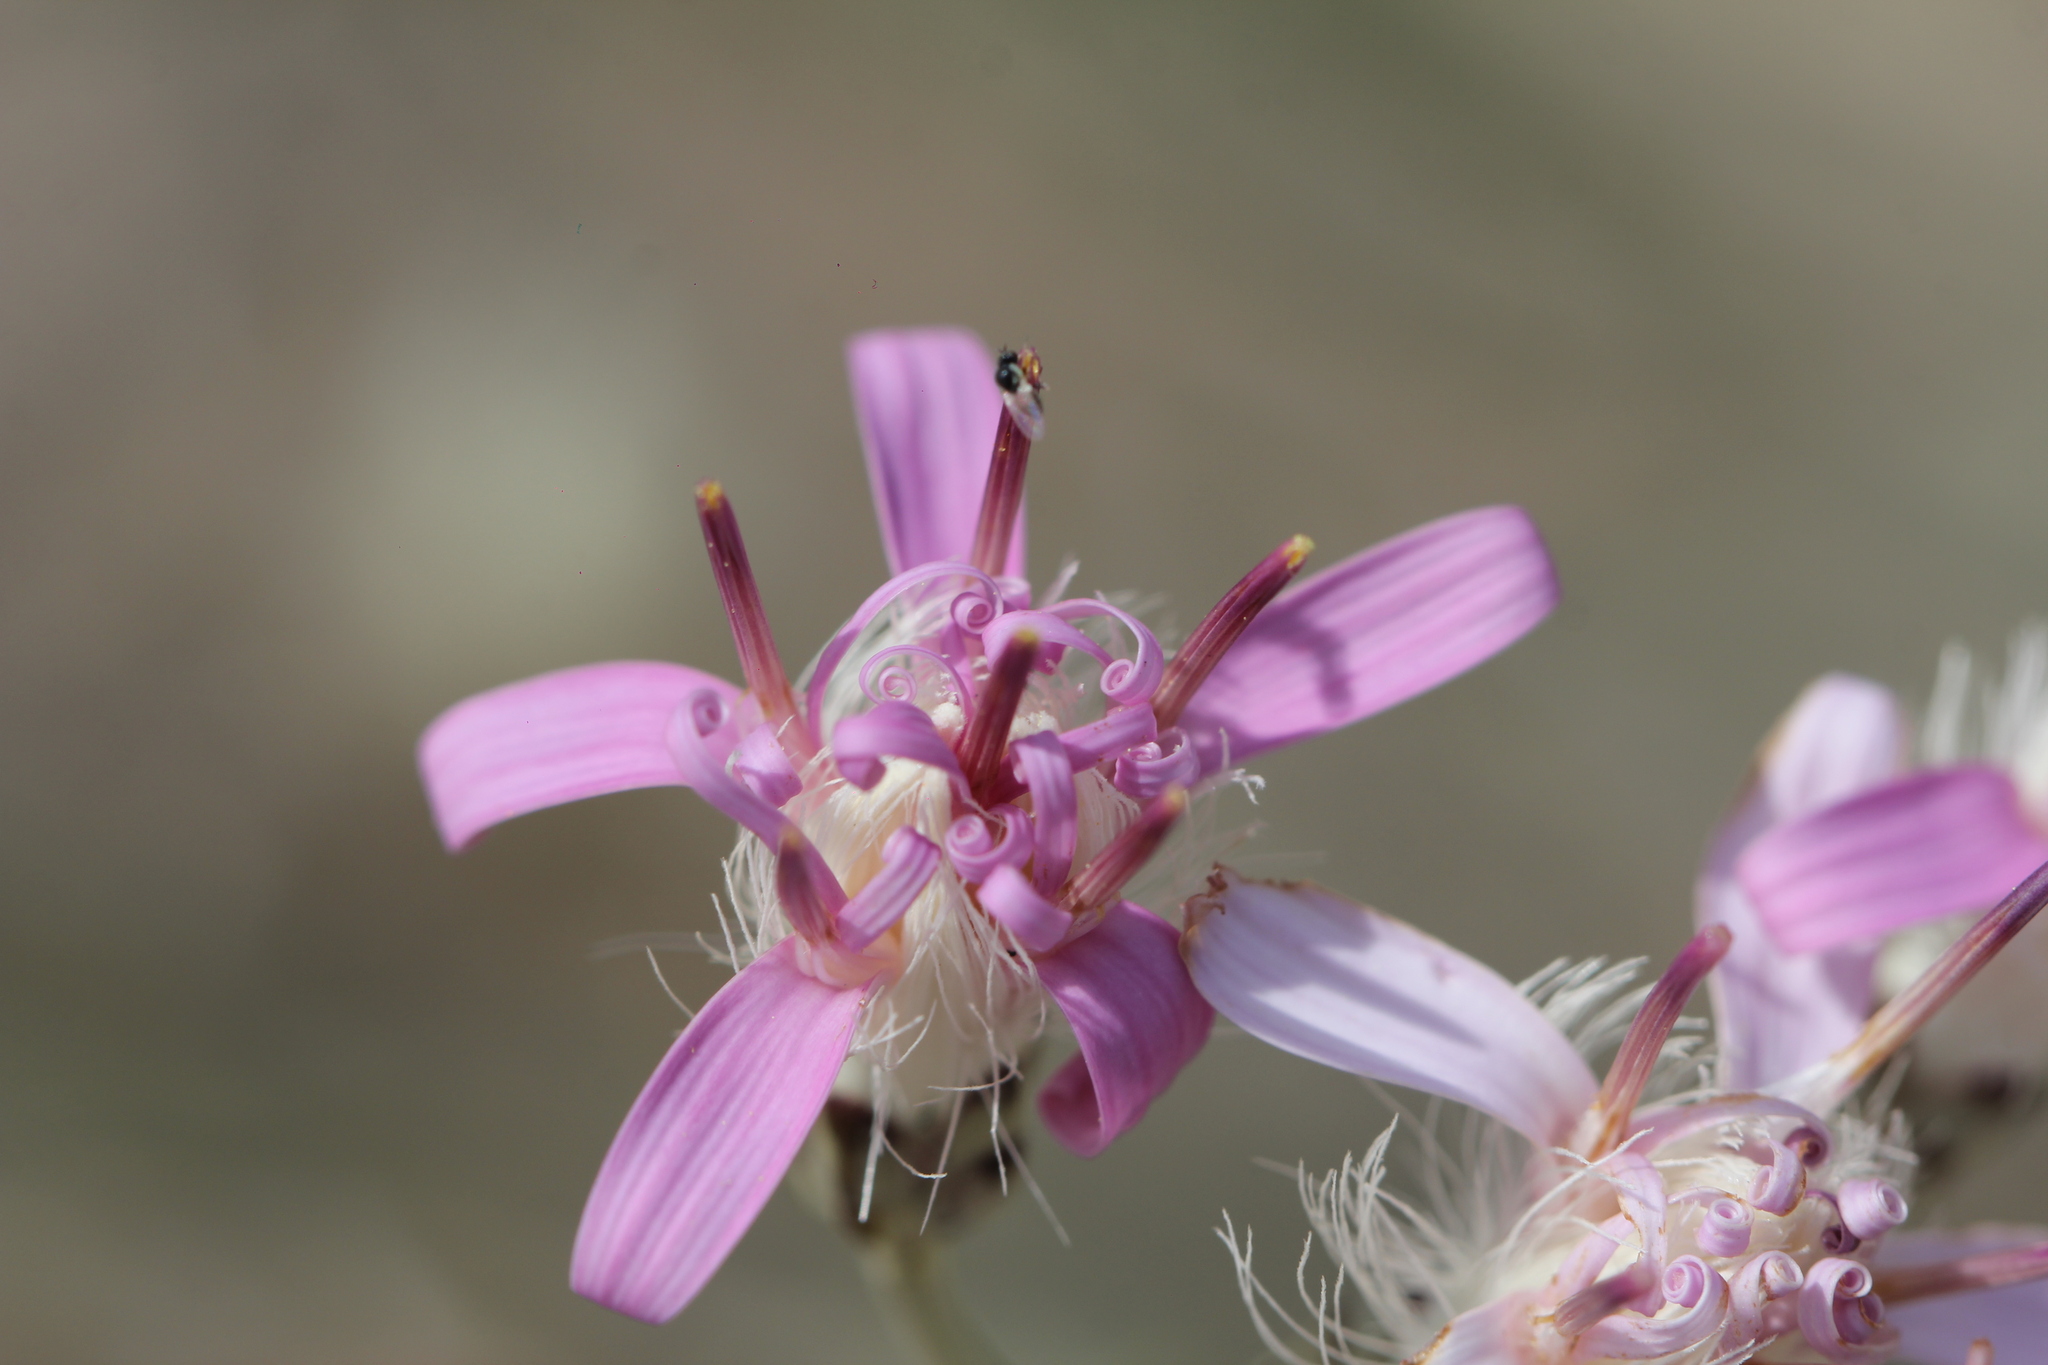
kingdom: Plantae
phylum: Tracheophyta
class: Magnoliopsida
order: Asterales
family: Asteraceae
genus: Hyalis
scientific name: Hyalis argentea
